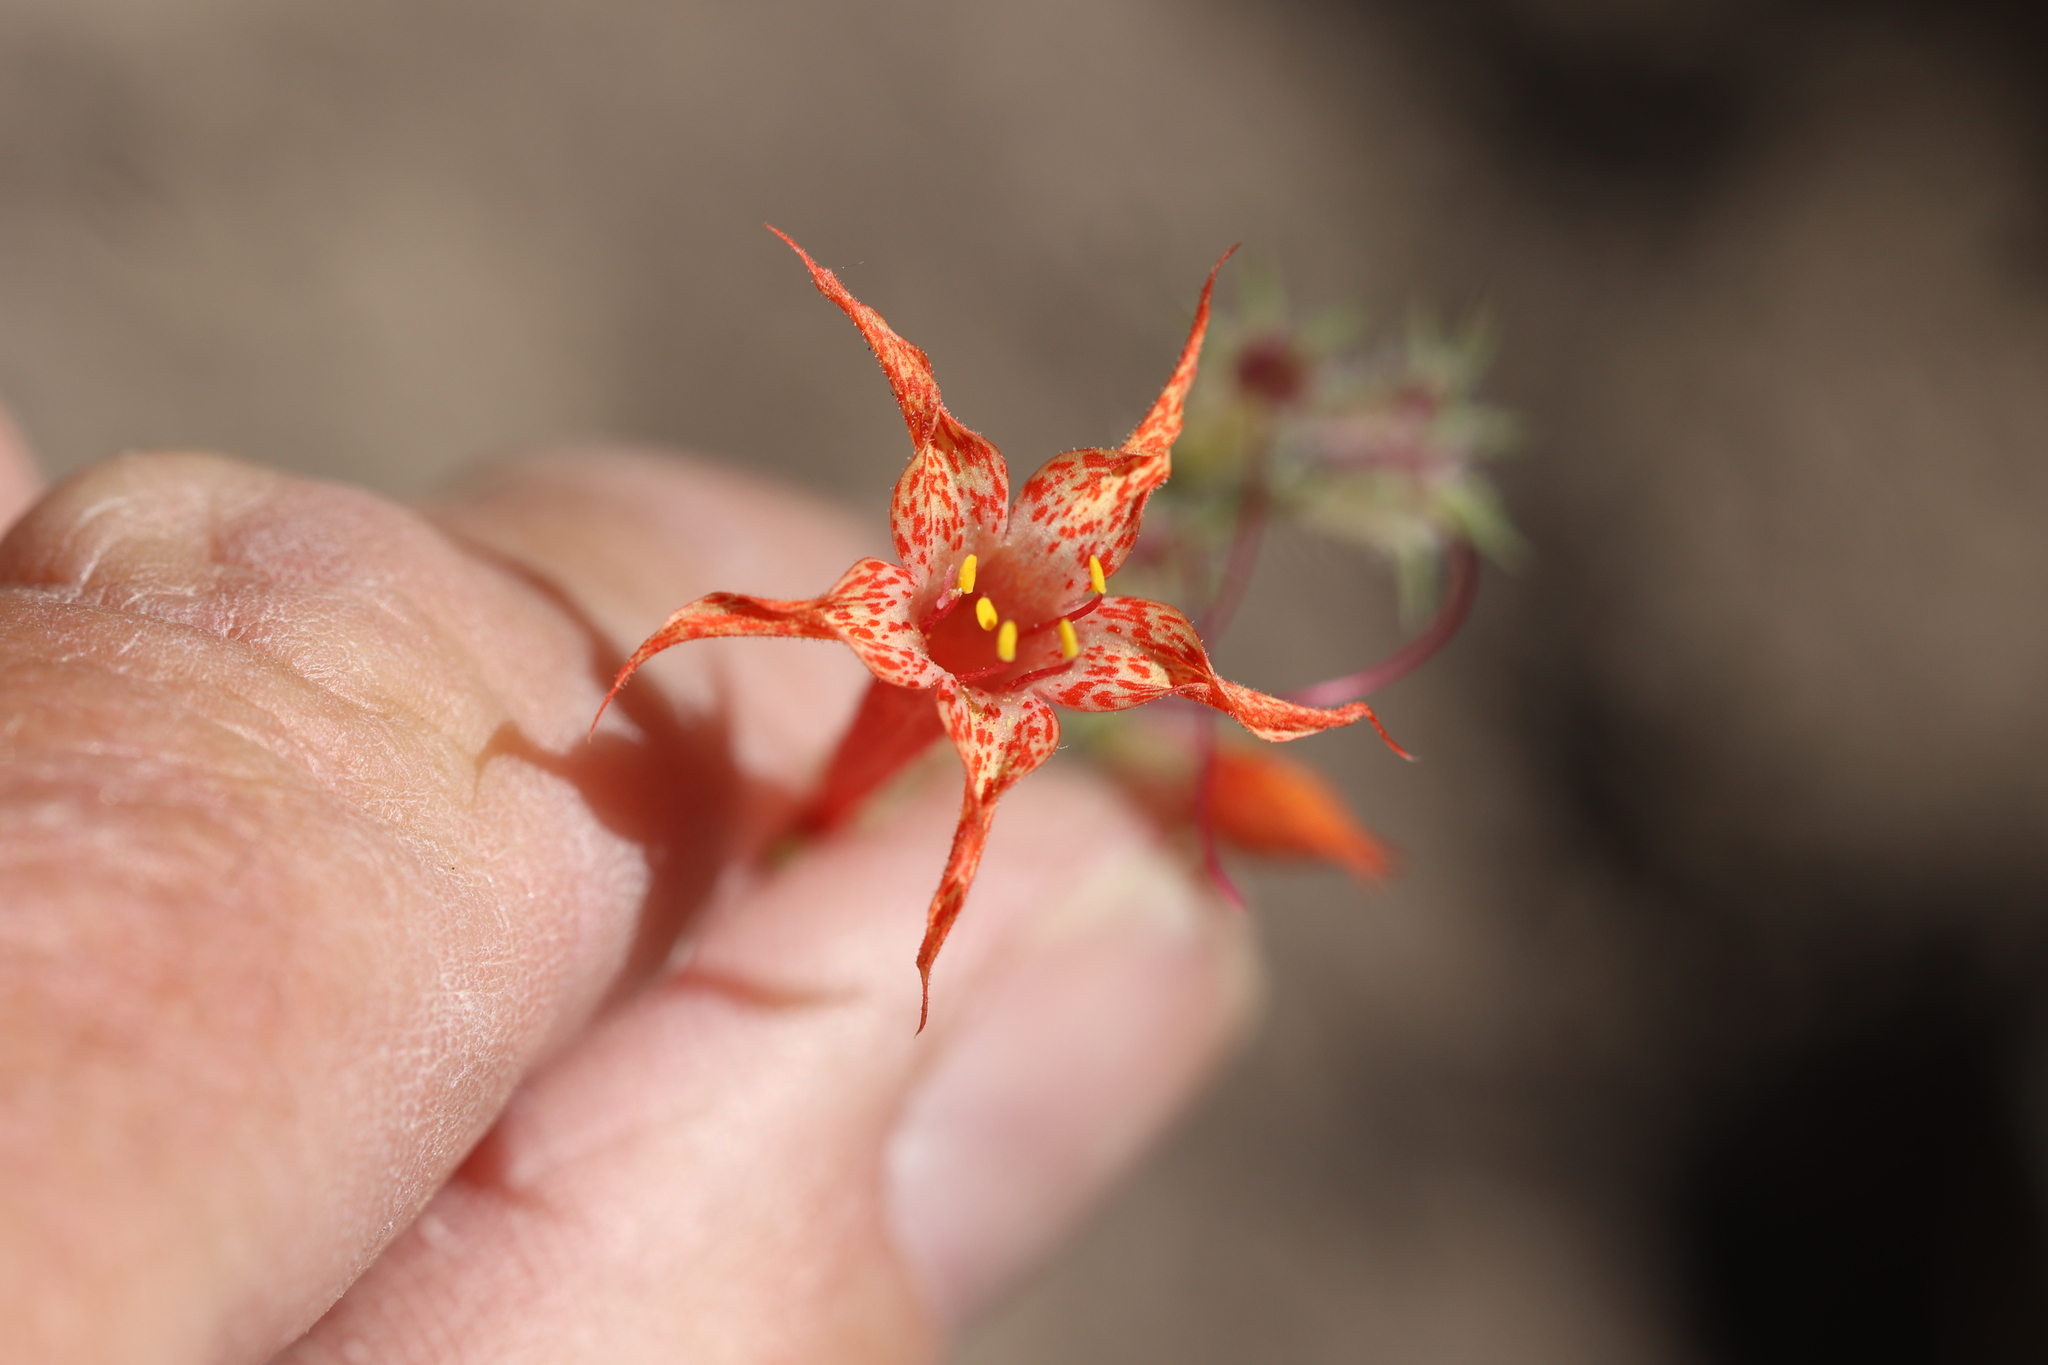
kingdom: Plantae
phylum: Tracheophyta
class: Magnoliopsida
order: Ericales
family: Polemoniaceae
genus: Ipomopsis
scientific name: Ipomopsis aggregata
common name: Scarlet gilia
